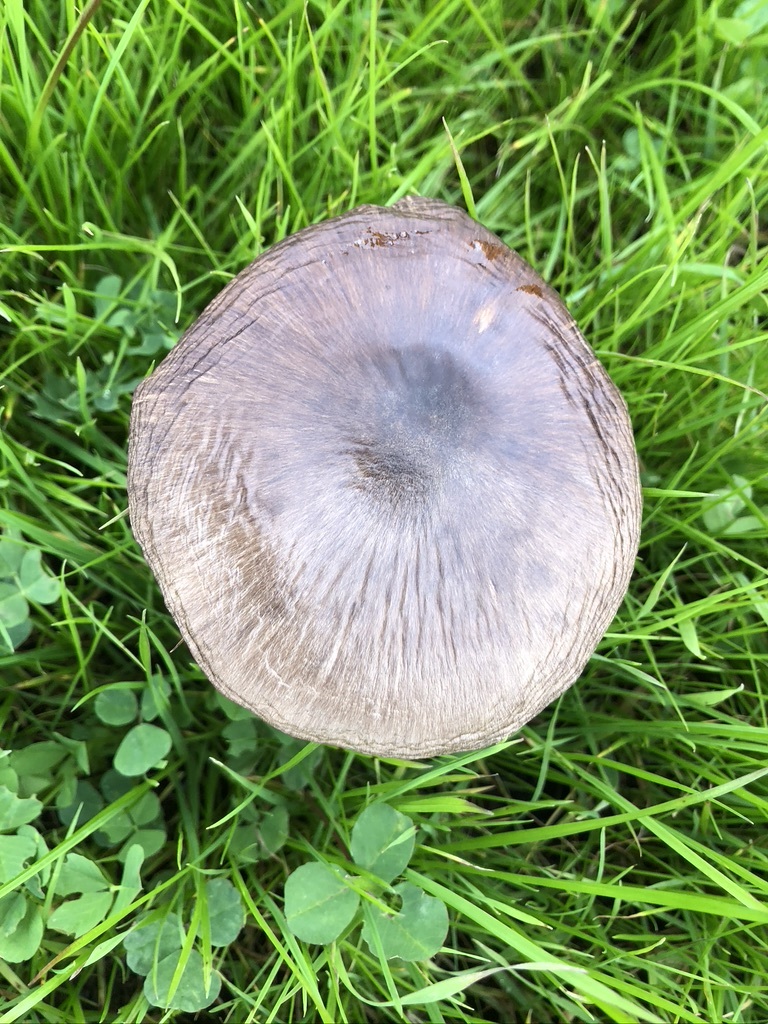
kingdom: Fungi
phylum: Basidiomycota
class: Agaricomycetes
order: Agaricales
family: Pluteaceae
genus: Volvopluteus
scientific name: Volvopluteus gloiocephalus
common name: Stubble rosegill
